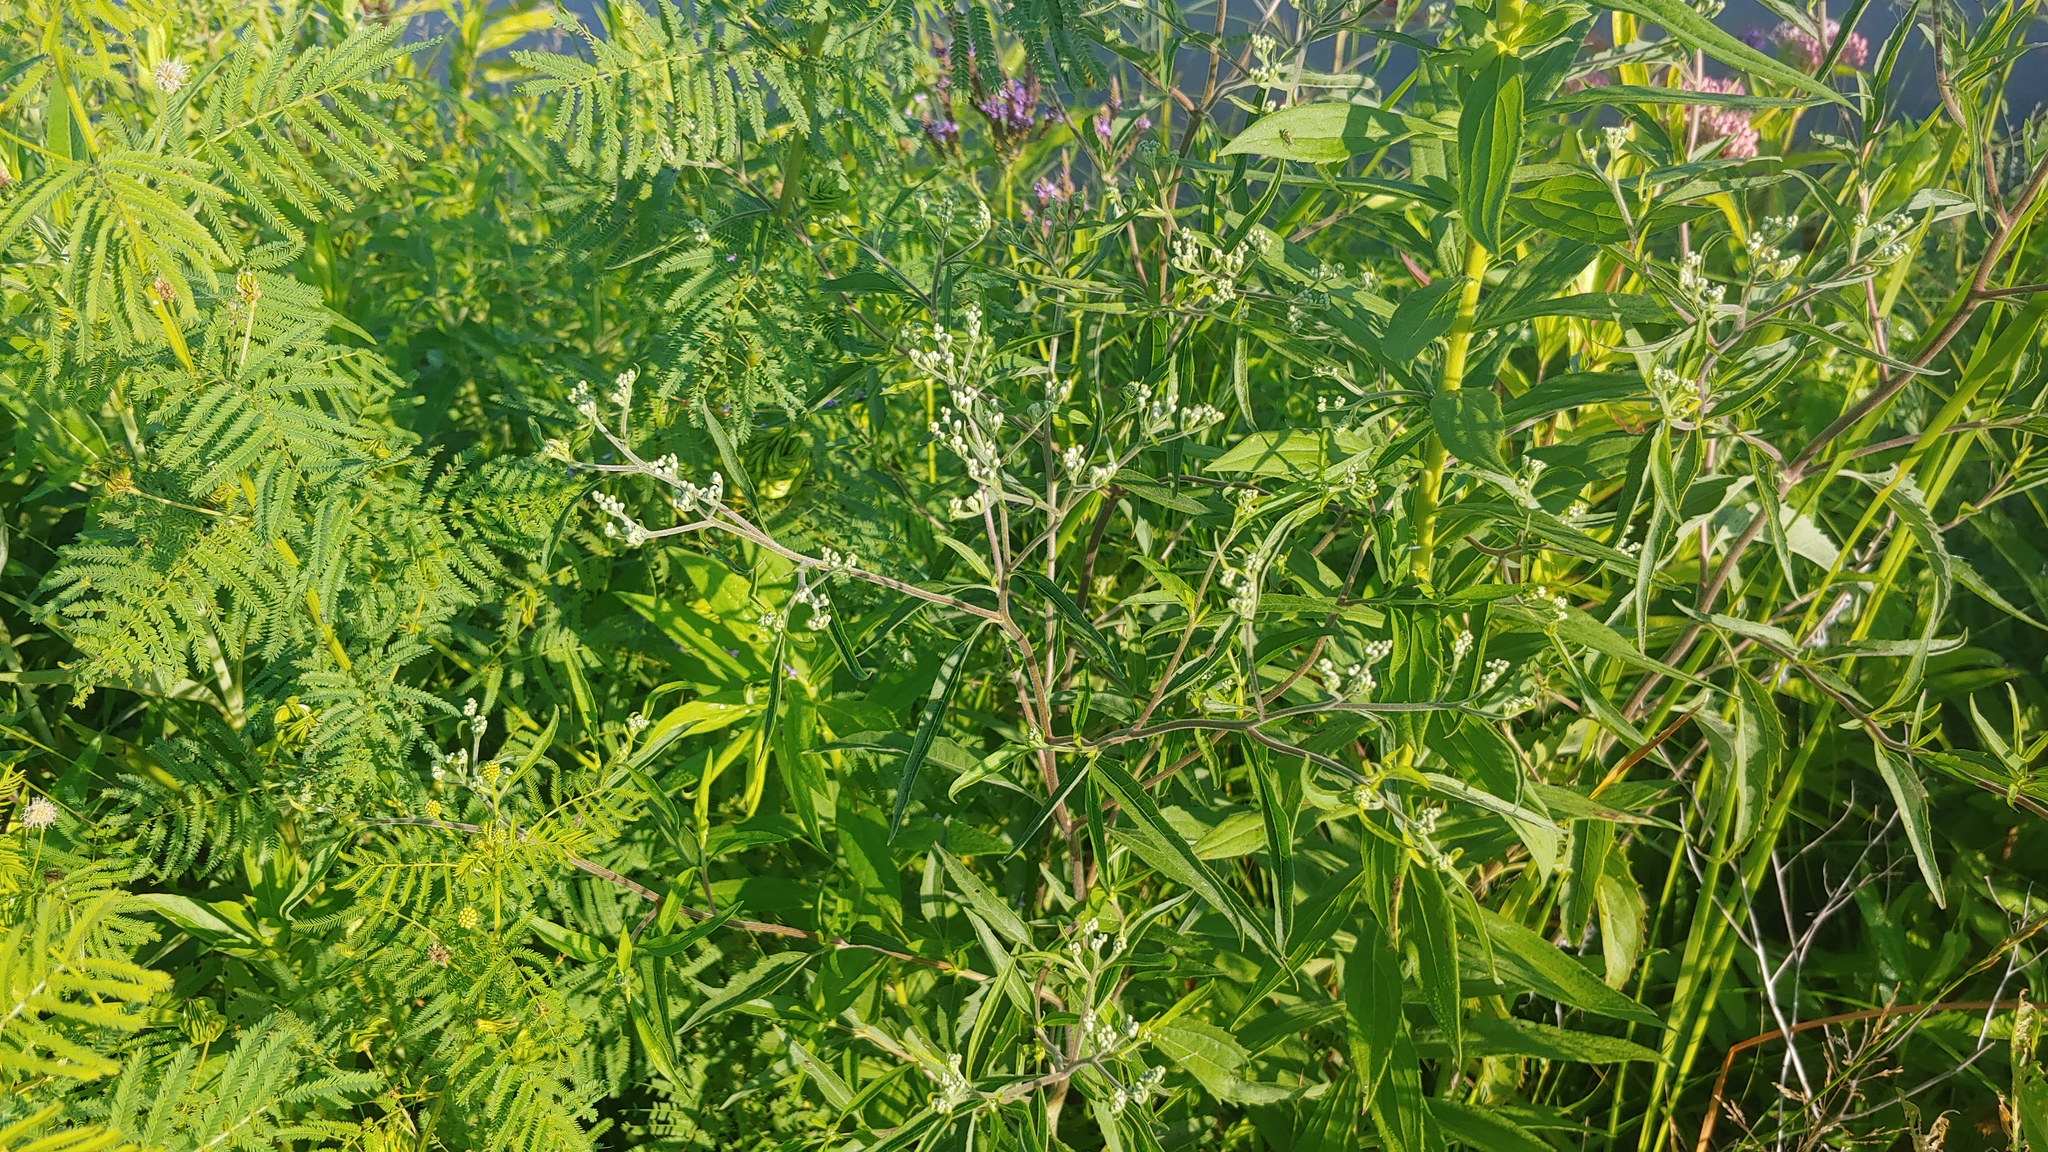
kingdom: Plantae
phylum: Tracheophyta
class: Magnoliopsida
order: Asterales
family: Asteraceae
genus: Eupatorium
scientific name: Eupatorium serotinum
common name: Late boneset
